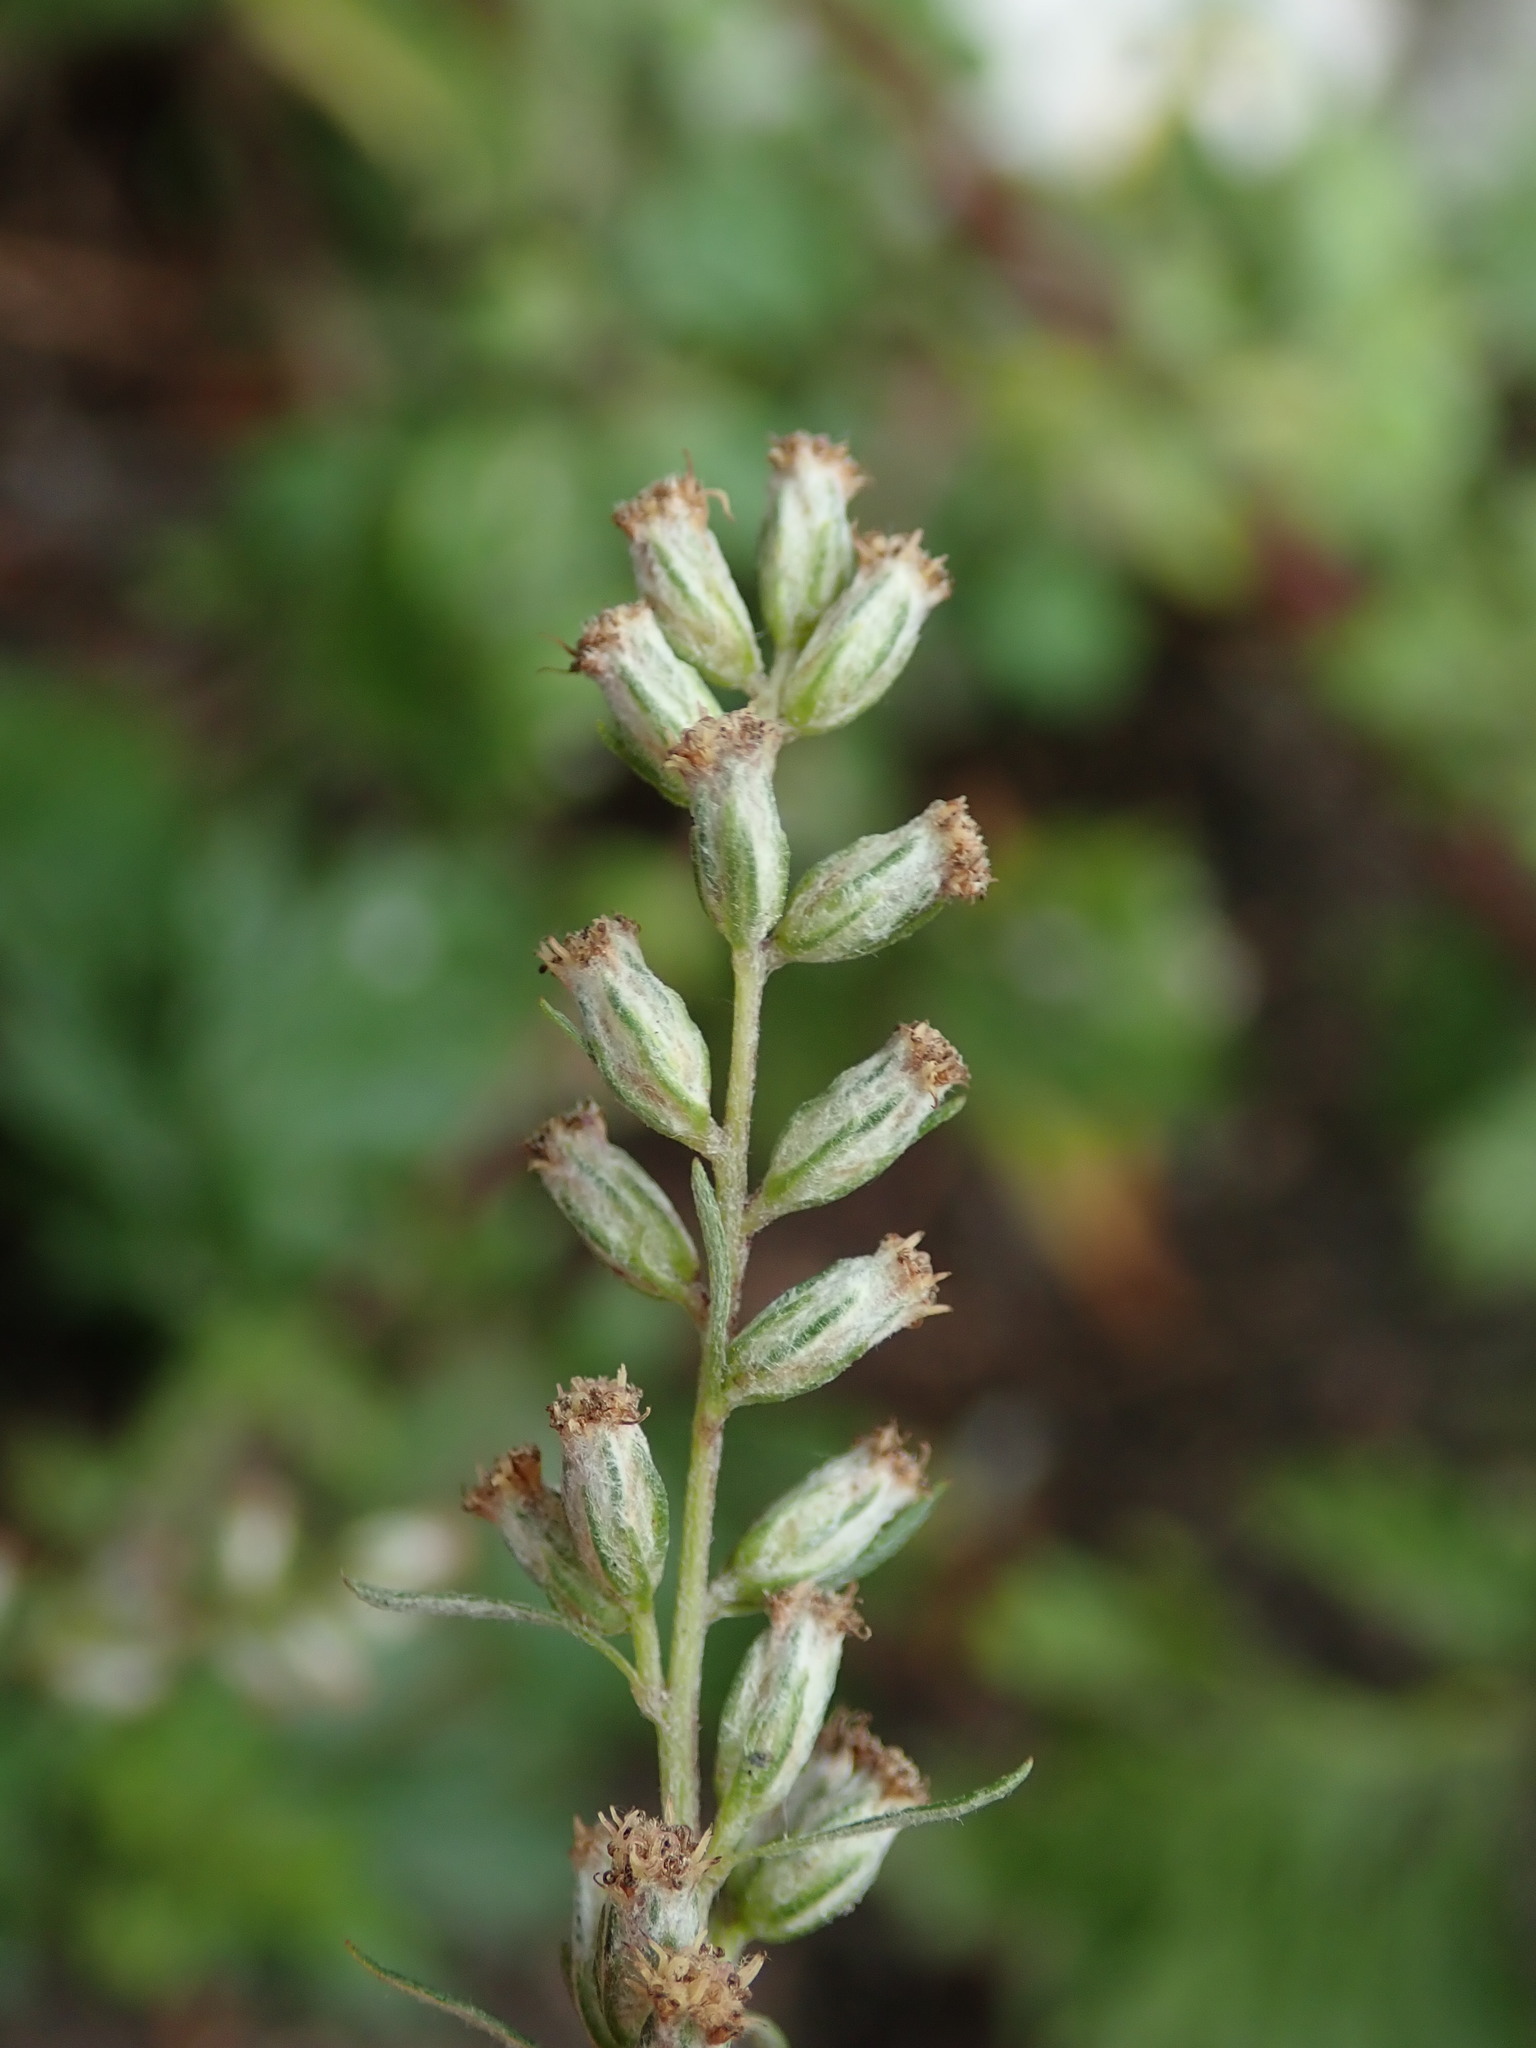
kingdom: Plantae
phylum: Tracheophyta
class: Magnoliopsida
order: Asterales
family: Asteraceae
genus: Artemisia
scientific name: Artemisia vulgaris
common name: Mugwort
